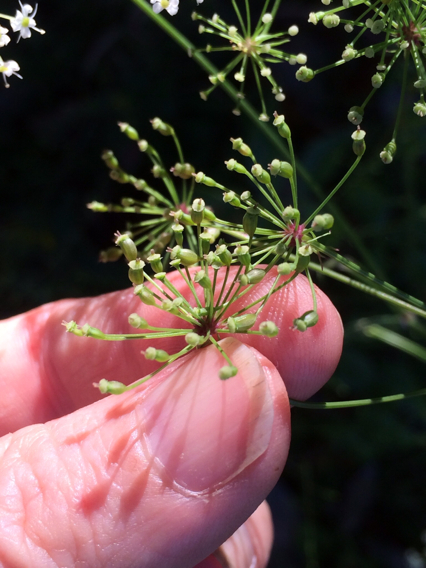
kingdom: Plantae
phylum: Tracheophyta
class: Magnoliopsida
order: Apiales
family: Apiaceae
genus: Oxypolis
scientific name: Oxypolis rigidior
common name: Cowbane
